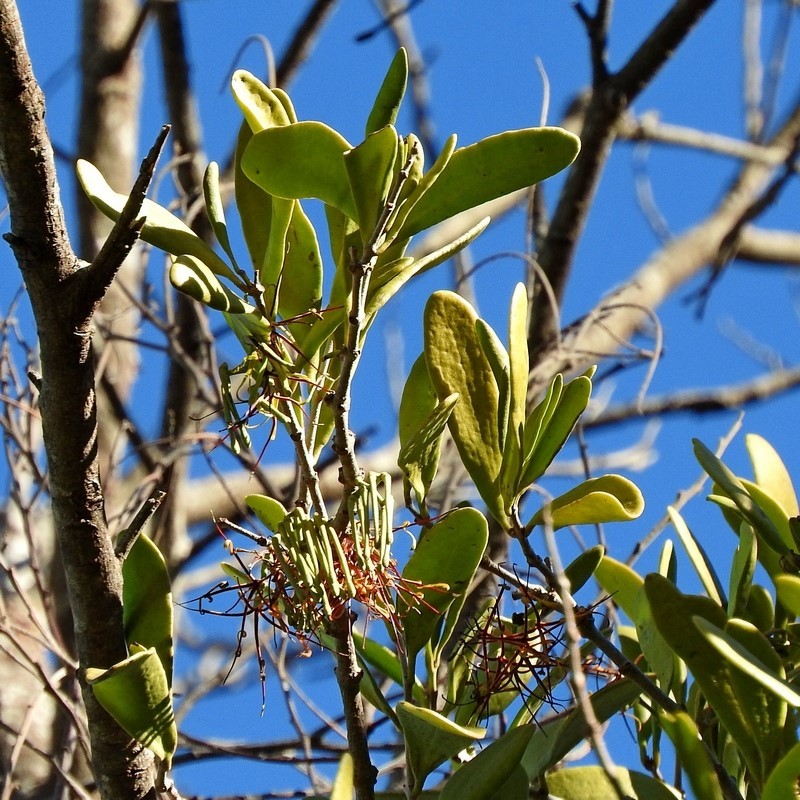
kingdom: Plantae
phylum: Tracheophyta
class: Magnoliopsida
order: Santalales
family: Loranthaceae
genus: Amyema
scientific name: Amyema congener
